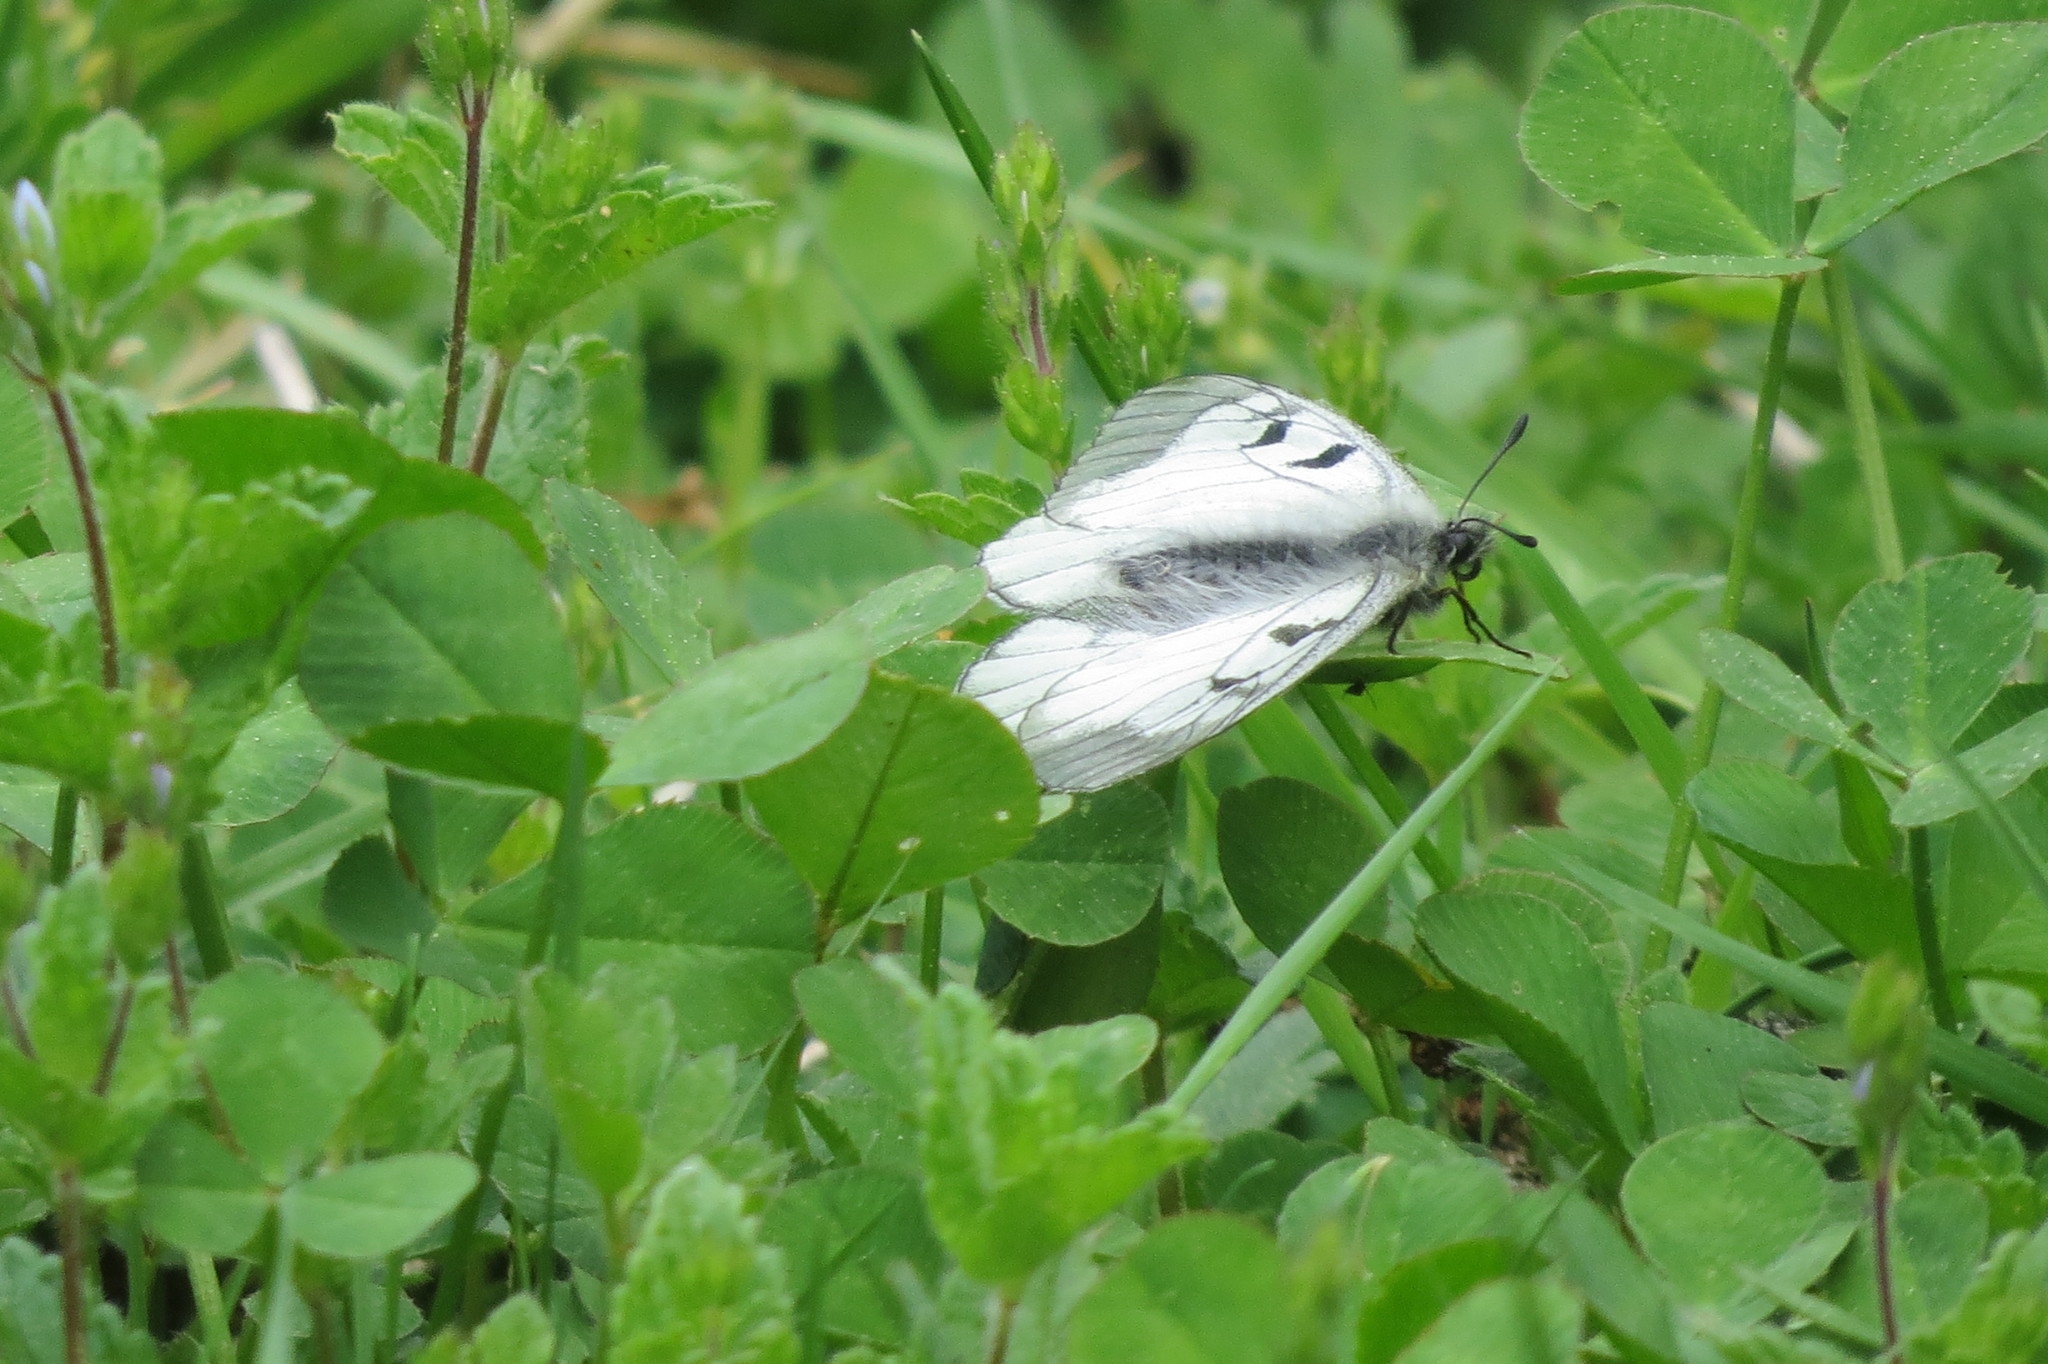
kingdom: Animalia
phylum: Arthropoda
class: Insecta
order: Lepidoptera
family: Papilionidae
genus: Parnassius
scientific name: Parnassius mnemosyne
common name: Clouded apollo
